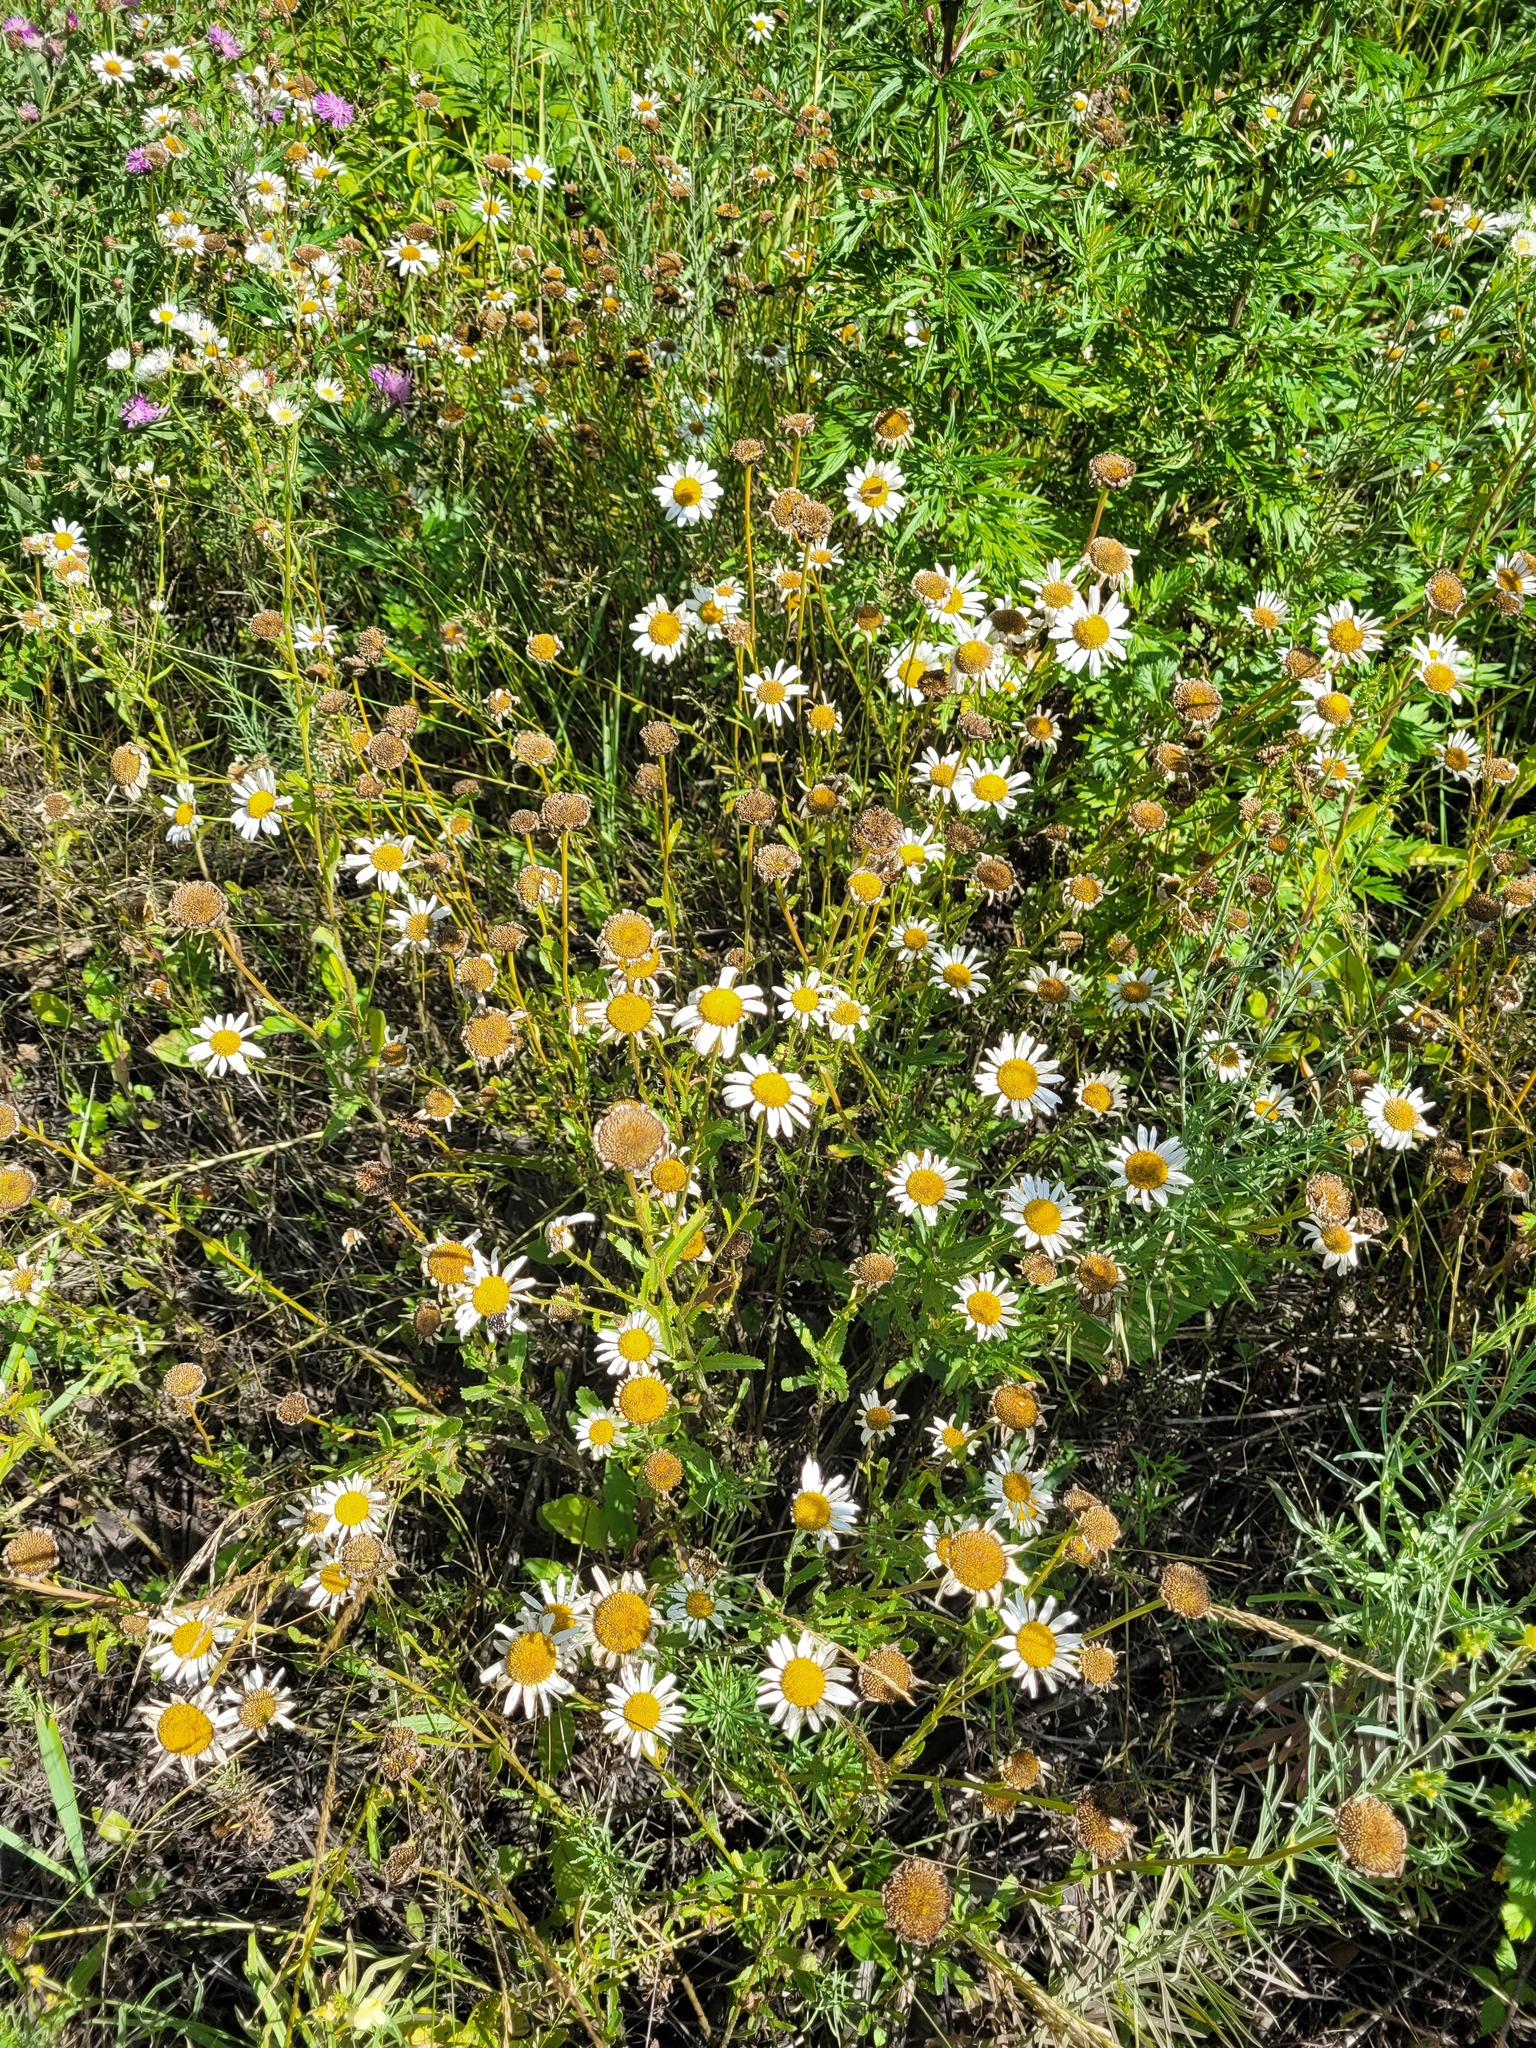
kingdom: Plantae
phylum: Tracheophyta
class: Magnoliopsida
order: Asterales
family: Asteraceae
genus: Leucanthemum
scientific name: Leucanthemum vulgare
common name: Oxeye daisy
